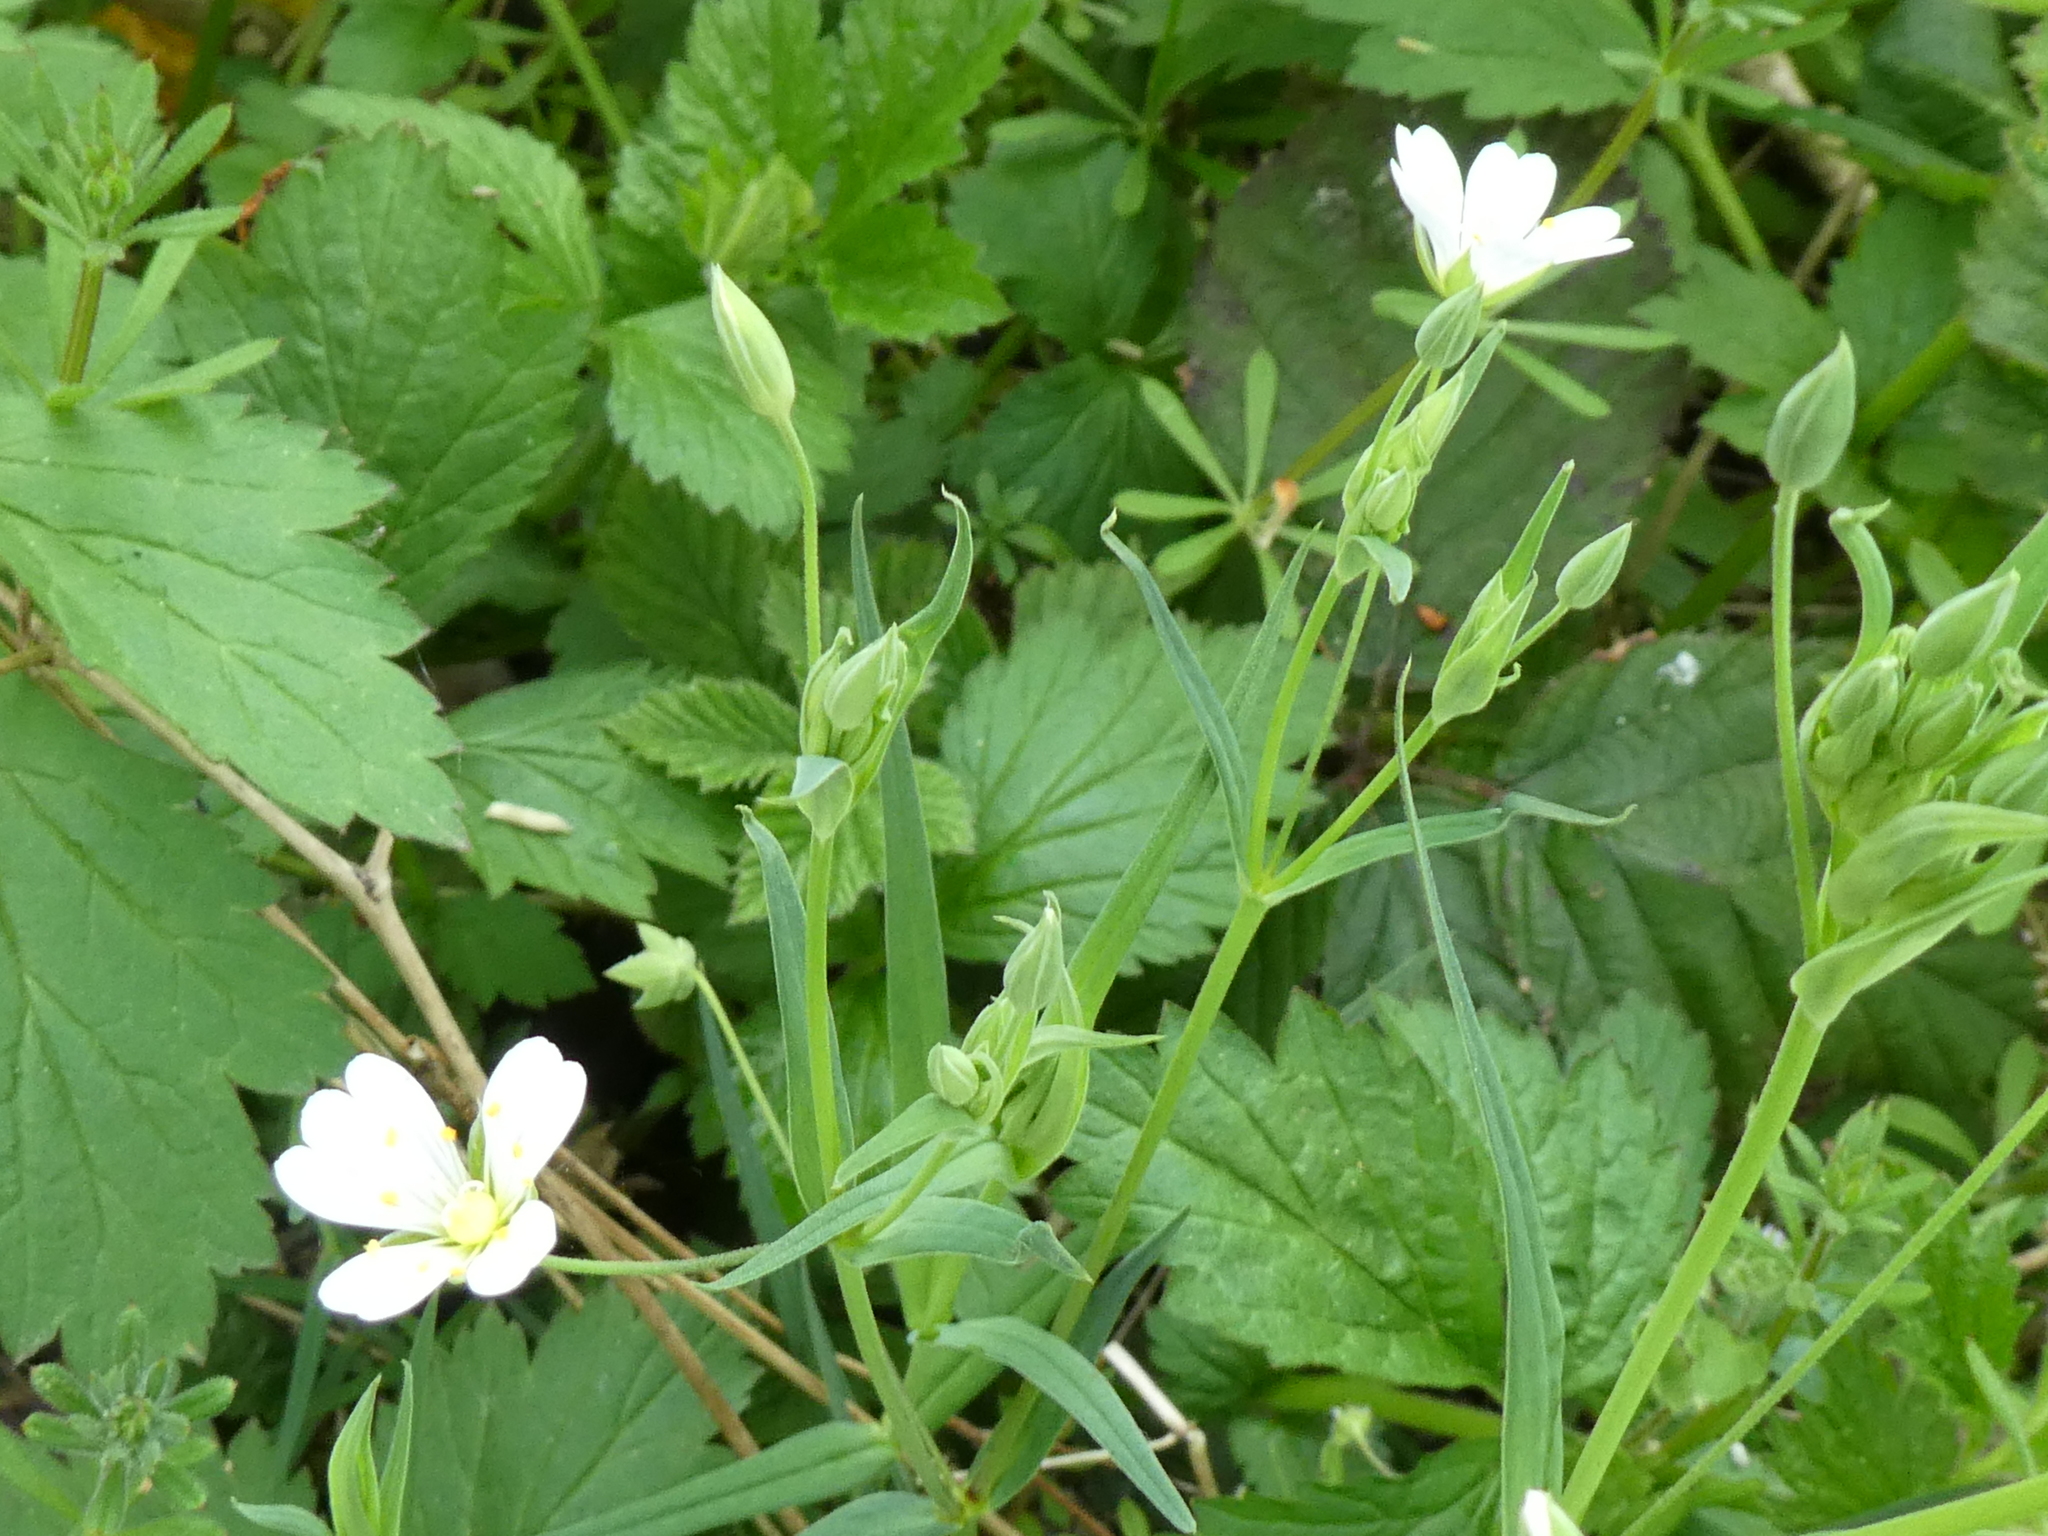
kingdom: Plantae
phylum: Tracheophyta
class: Magnoliopsida
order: Caryophyllales
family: Caryophyllaceae
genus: Rabelera
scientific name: Rabelera holostea
